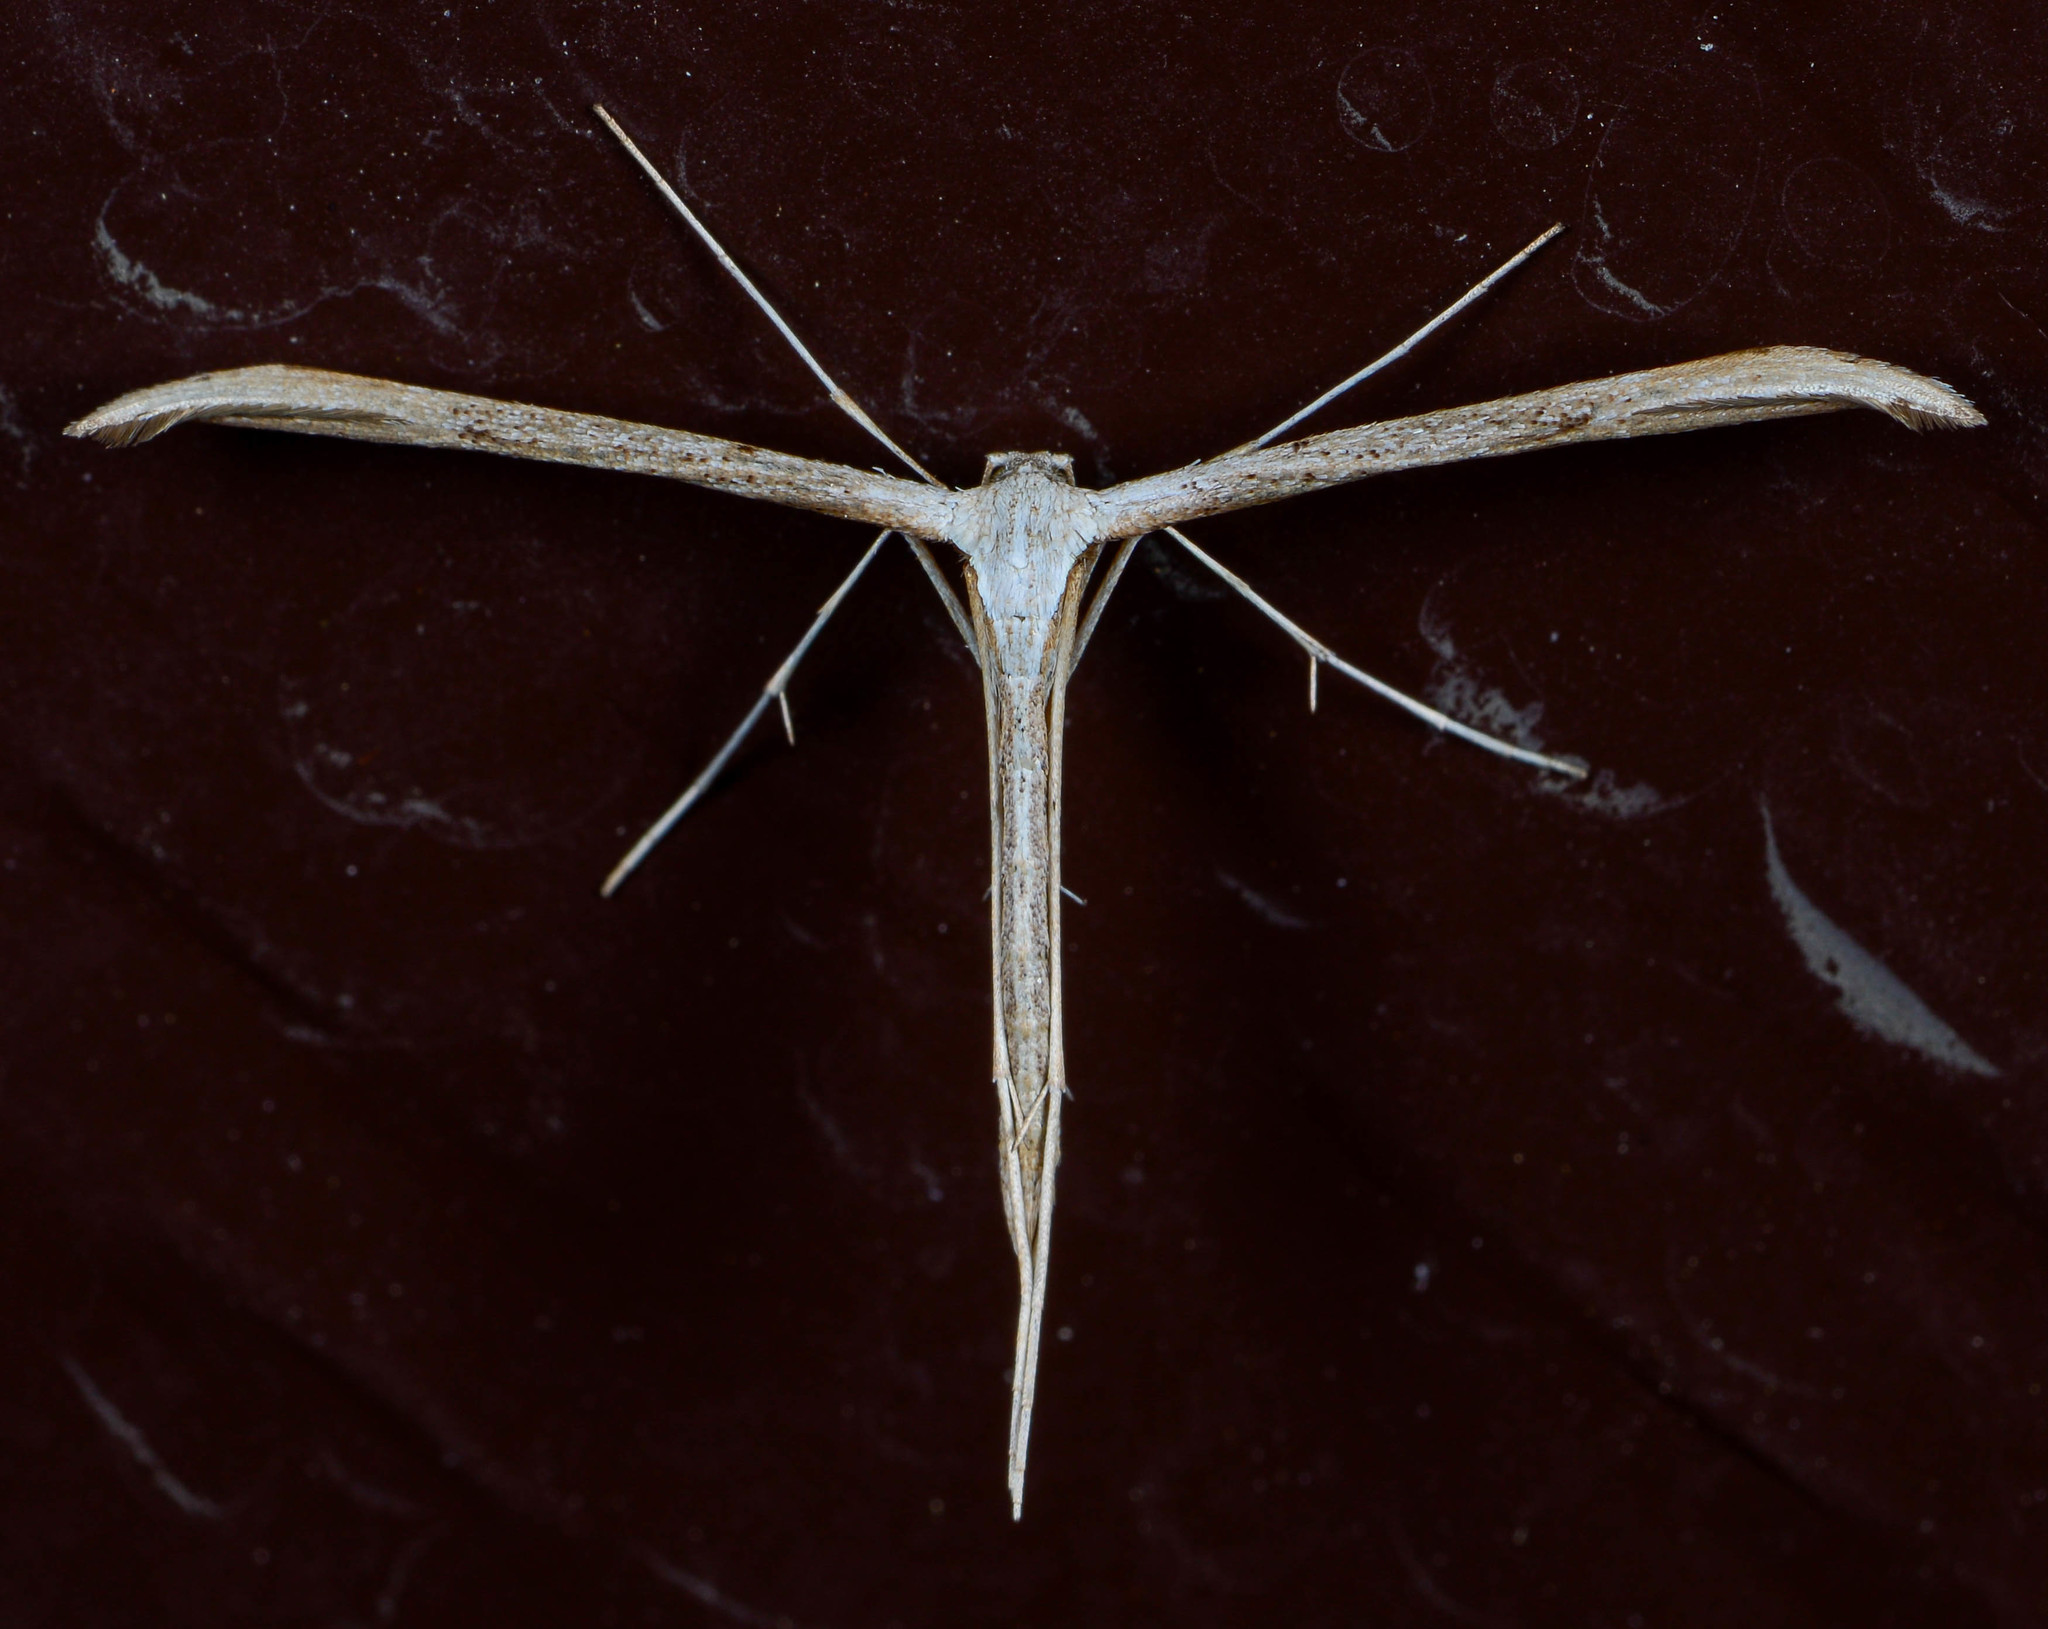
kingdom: Animalia
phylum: Arthropoda
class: Insecta
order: Lepidoptera
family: Pterophoridae
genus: Emmelina
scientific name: Emmelina monodactyla
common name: Common plume
